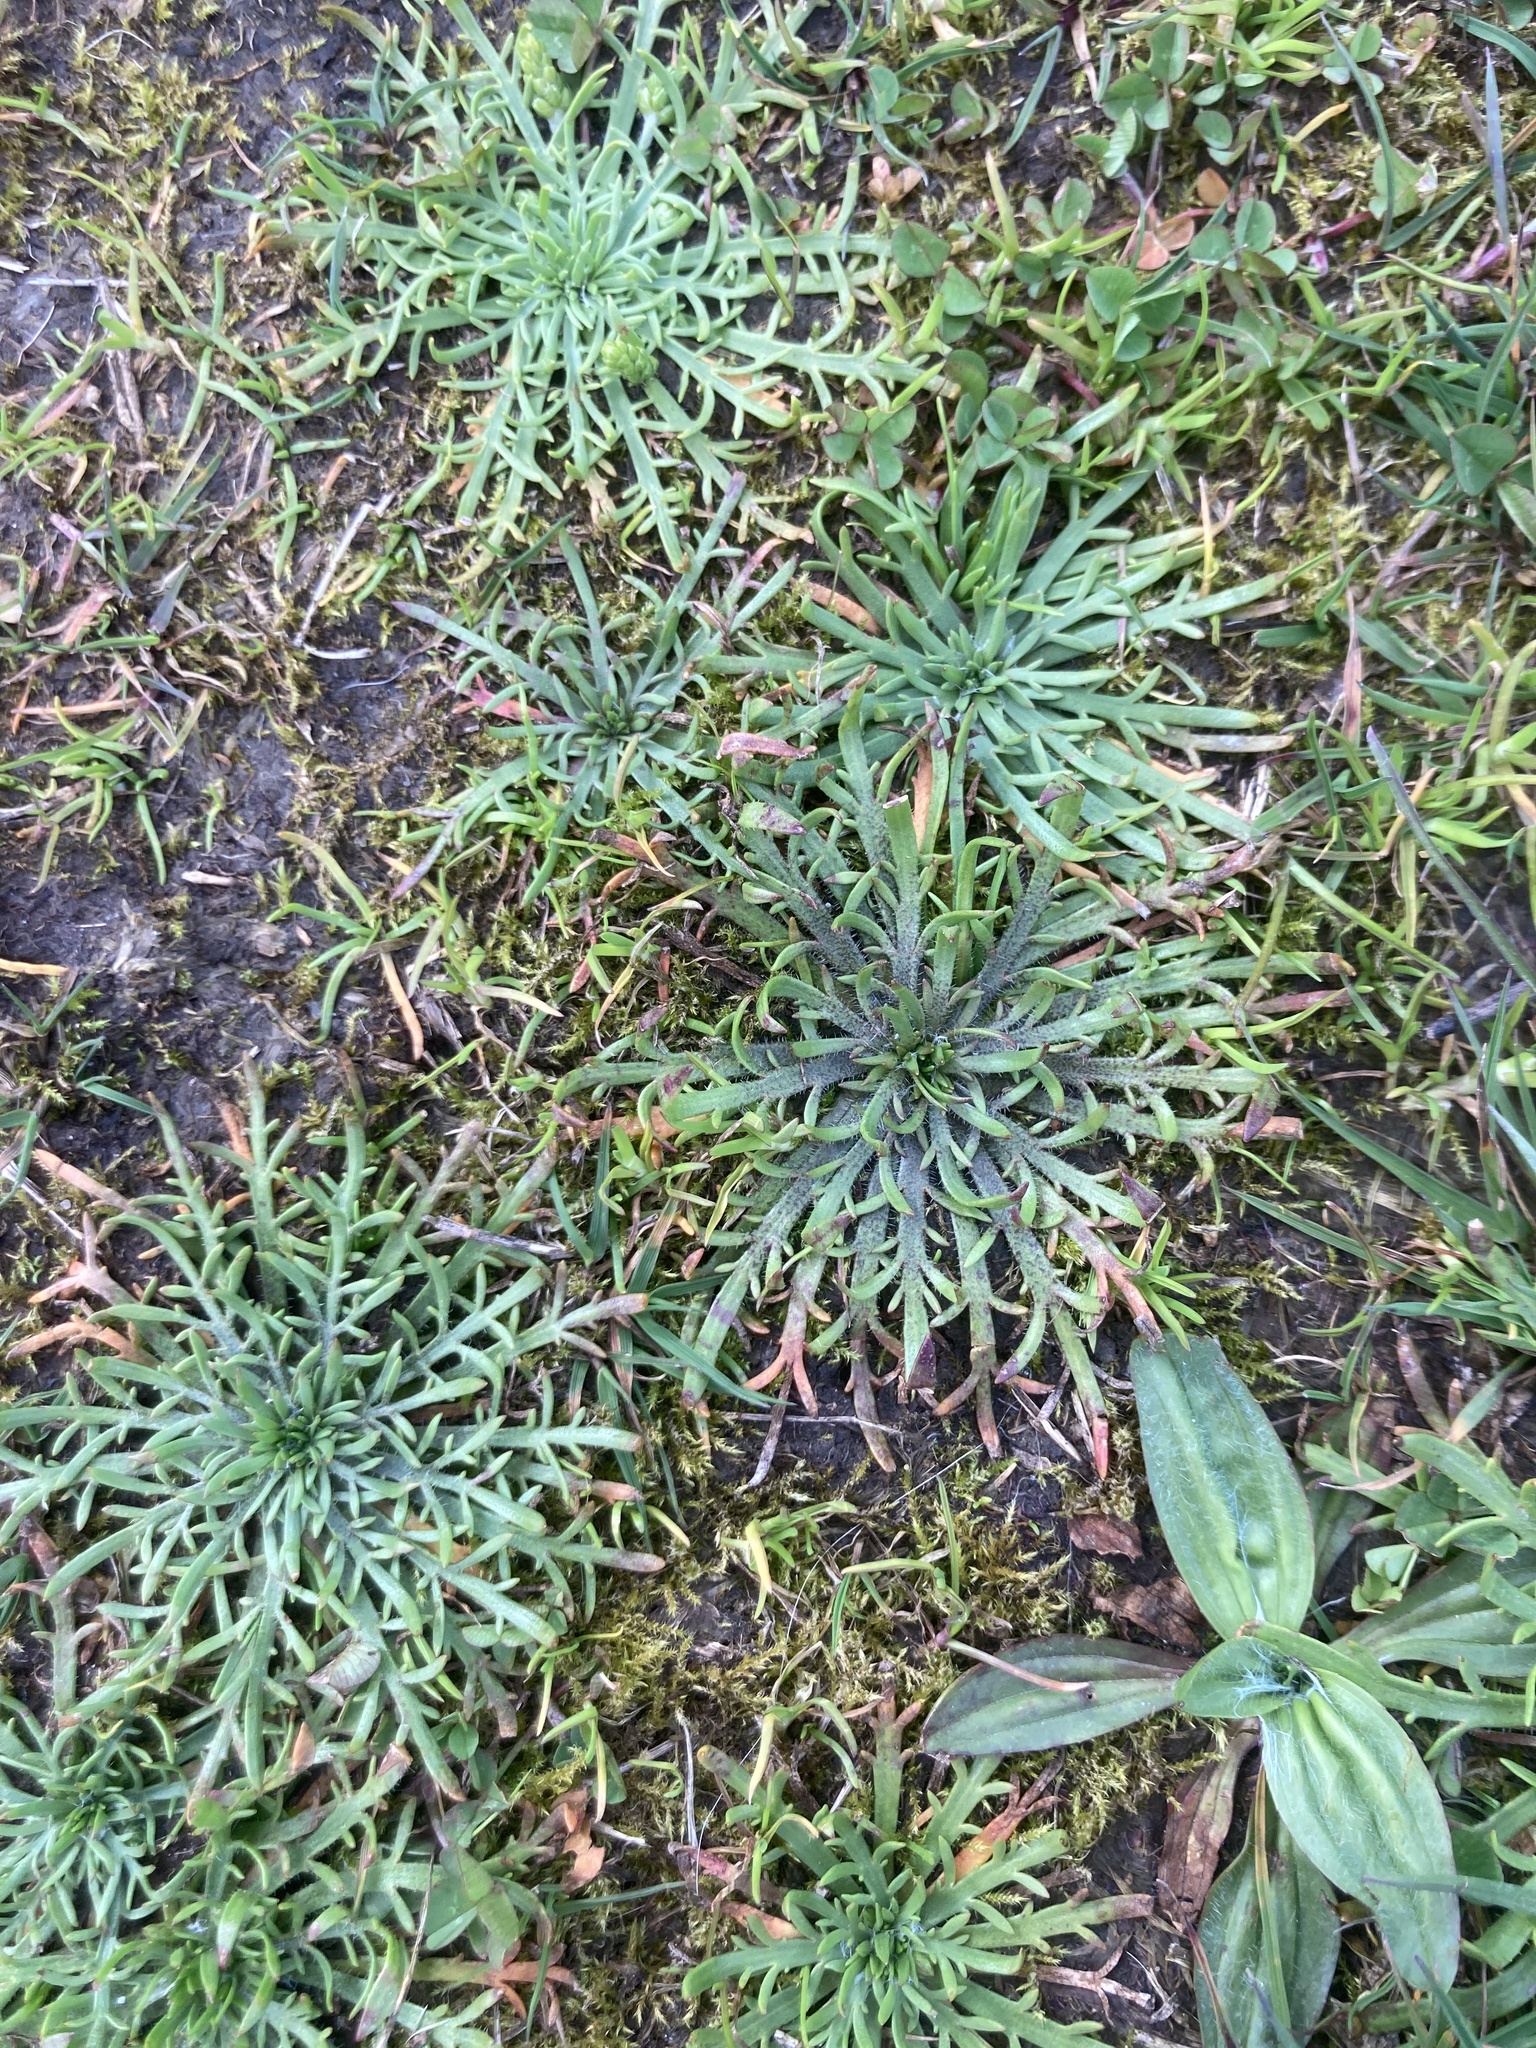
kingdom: Plantae
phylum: Tracheophyta
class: Magnoliopsida
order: Lamiales
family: Plantaginaceae
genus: Plantago
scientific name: Plantago coronopus
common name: Buck's-horn plantain
